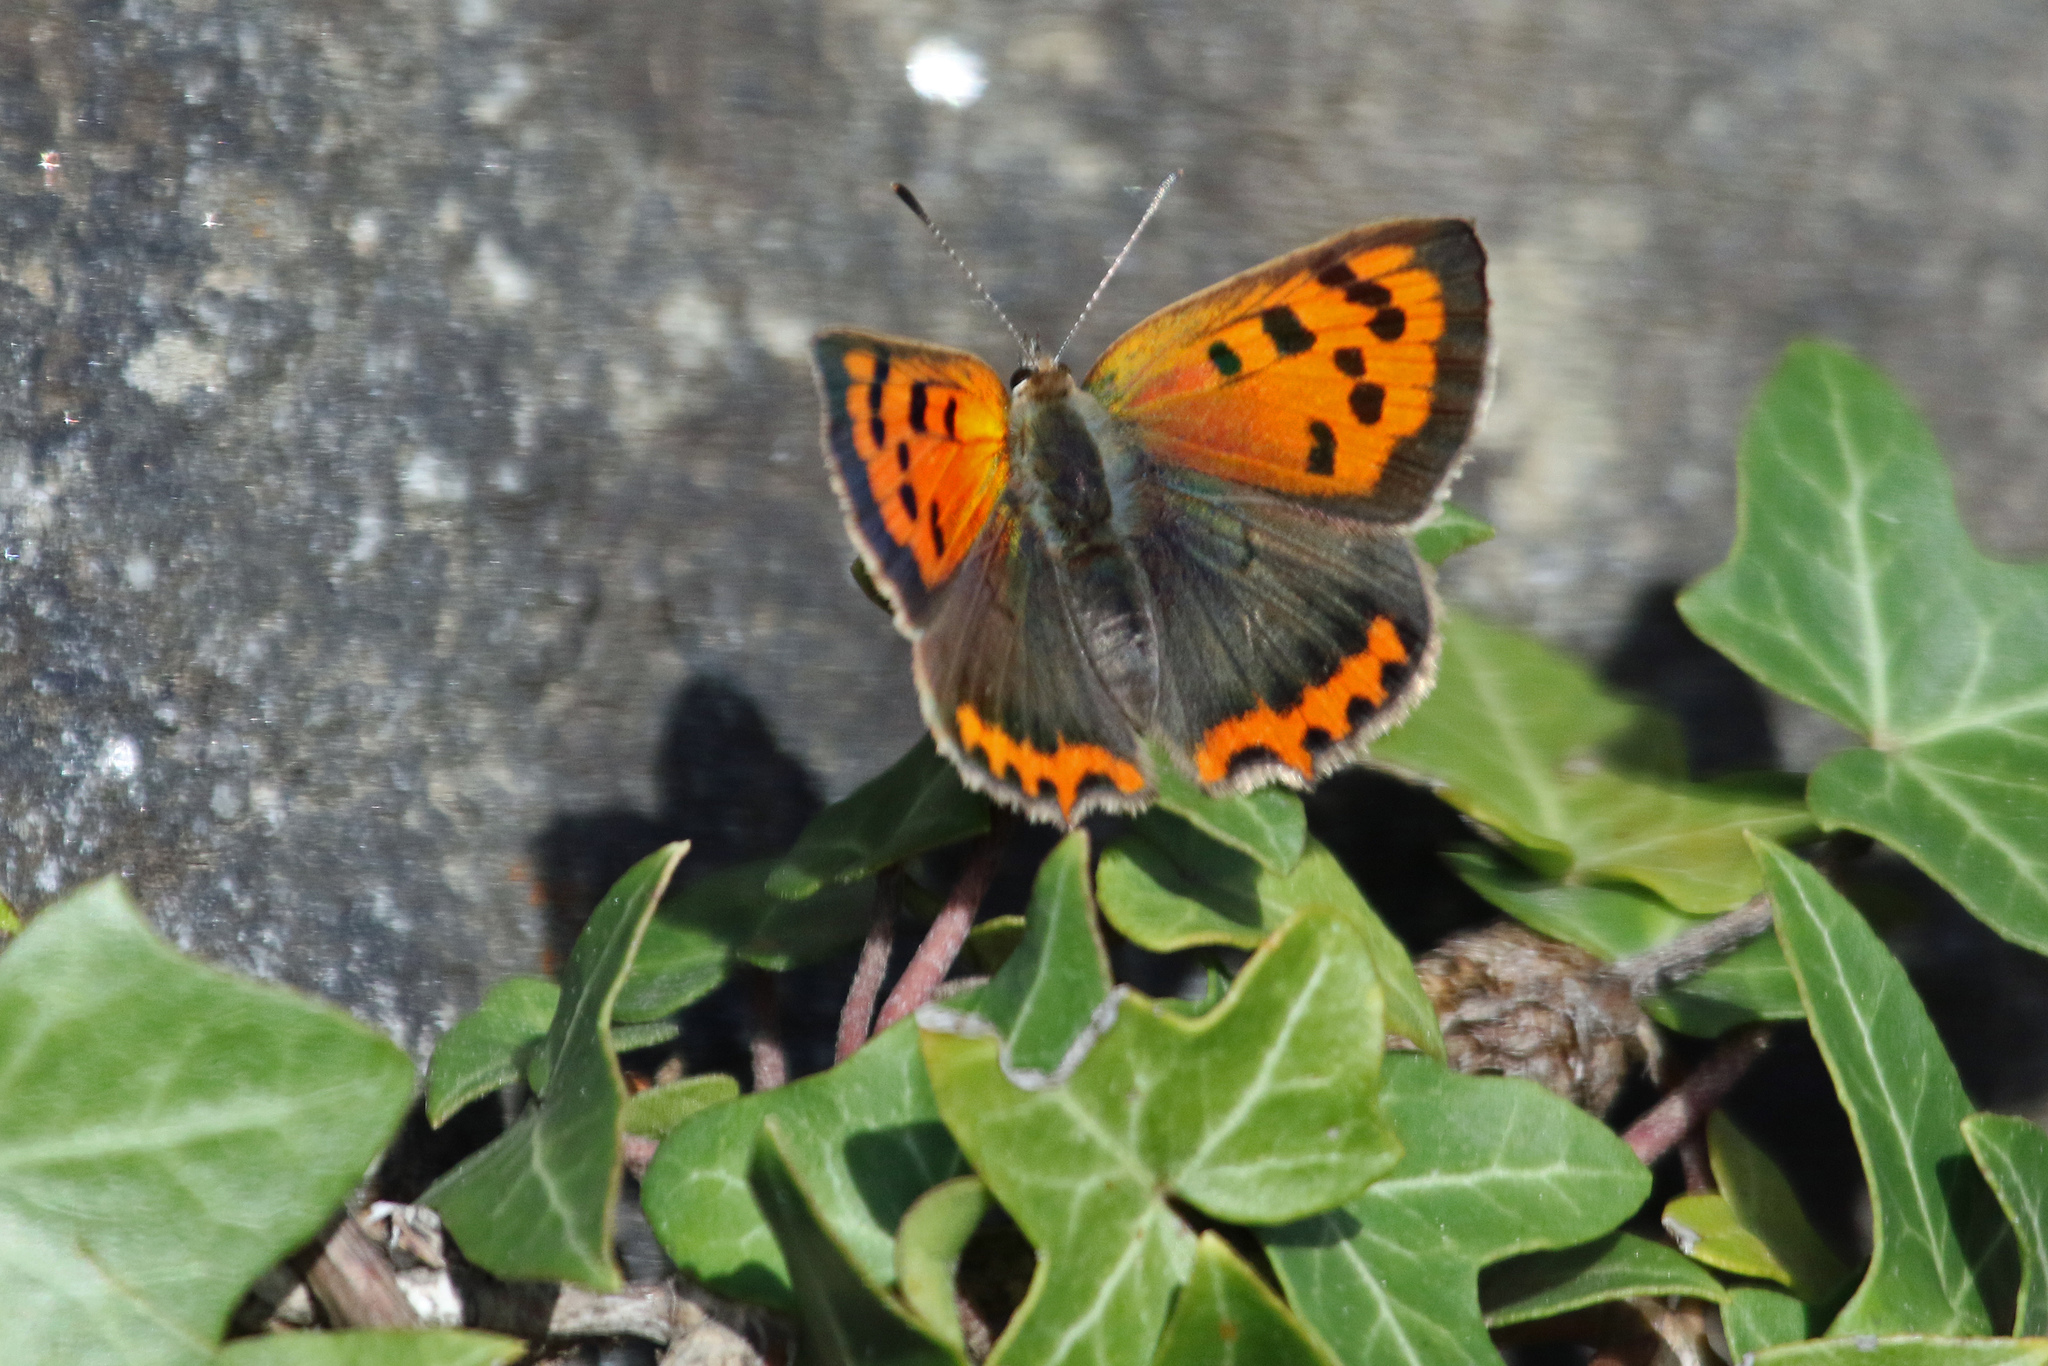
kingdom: Animalia
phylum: Arthropoda
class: Insecta
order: Lepidoptera
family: Lycaenidae
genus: Lycaena
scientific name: Lycaena phlaeas
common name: Small copper
